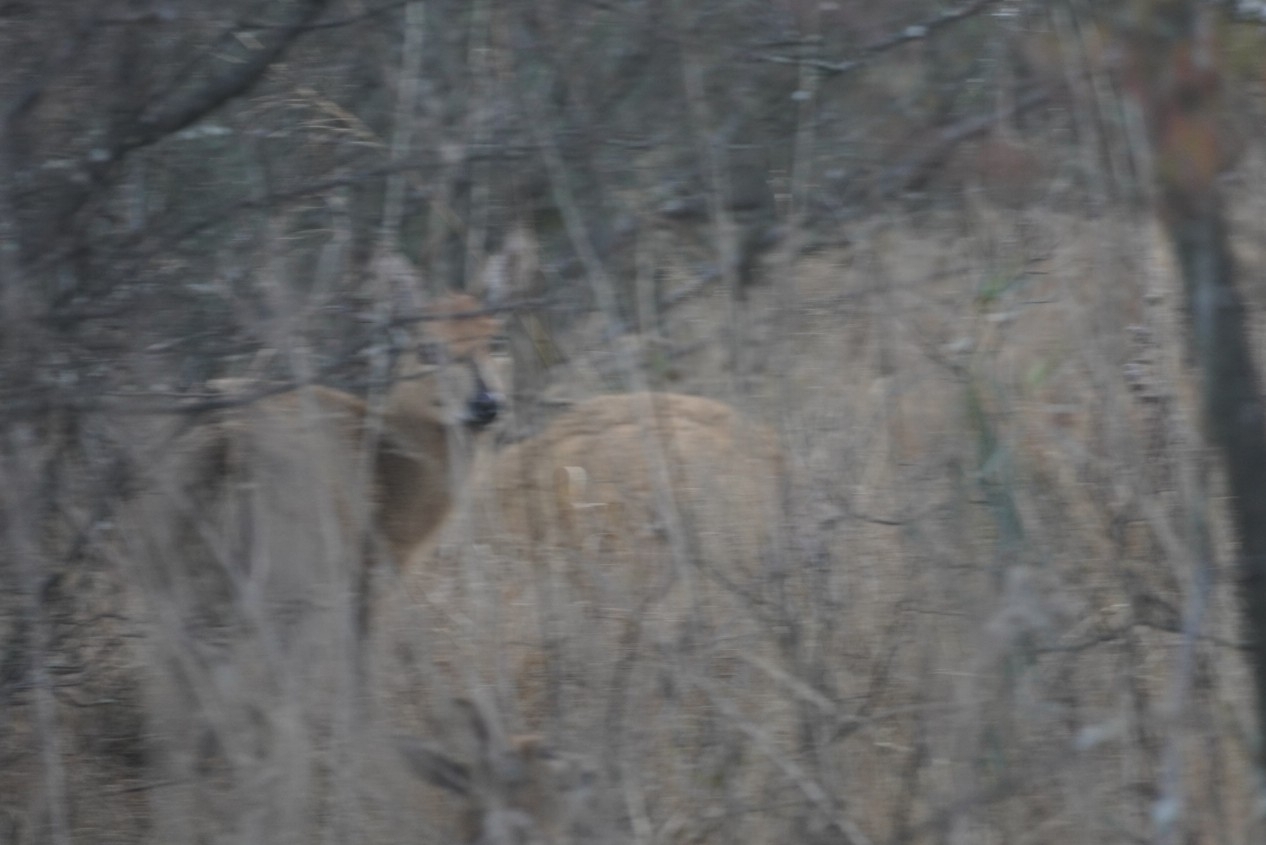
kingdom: Animalia
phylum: Chordata
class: Mammalia
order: Artiodactyla
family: Bovidae
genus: Sylvicapra
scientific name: Sylvicapra grimmia
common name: Bush duiker
